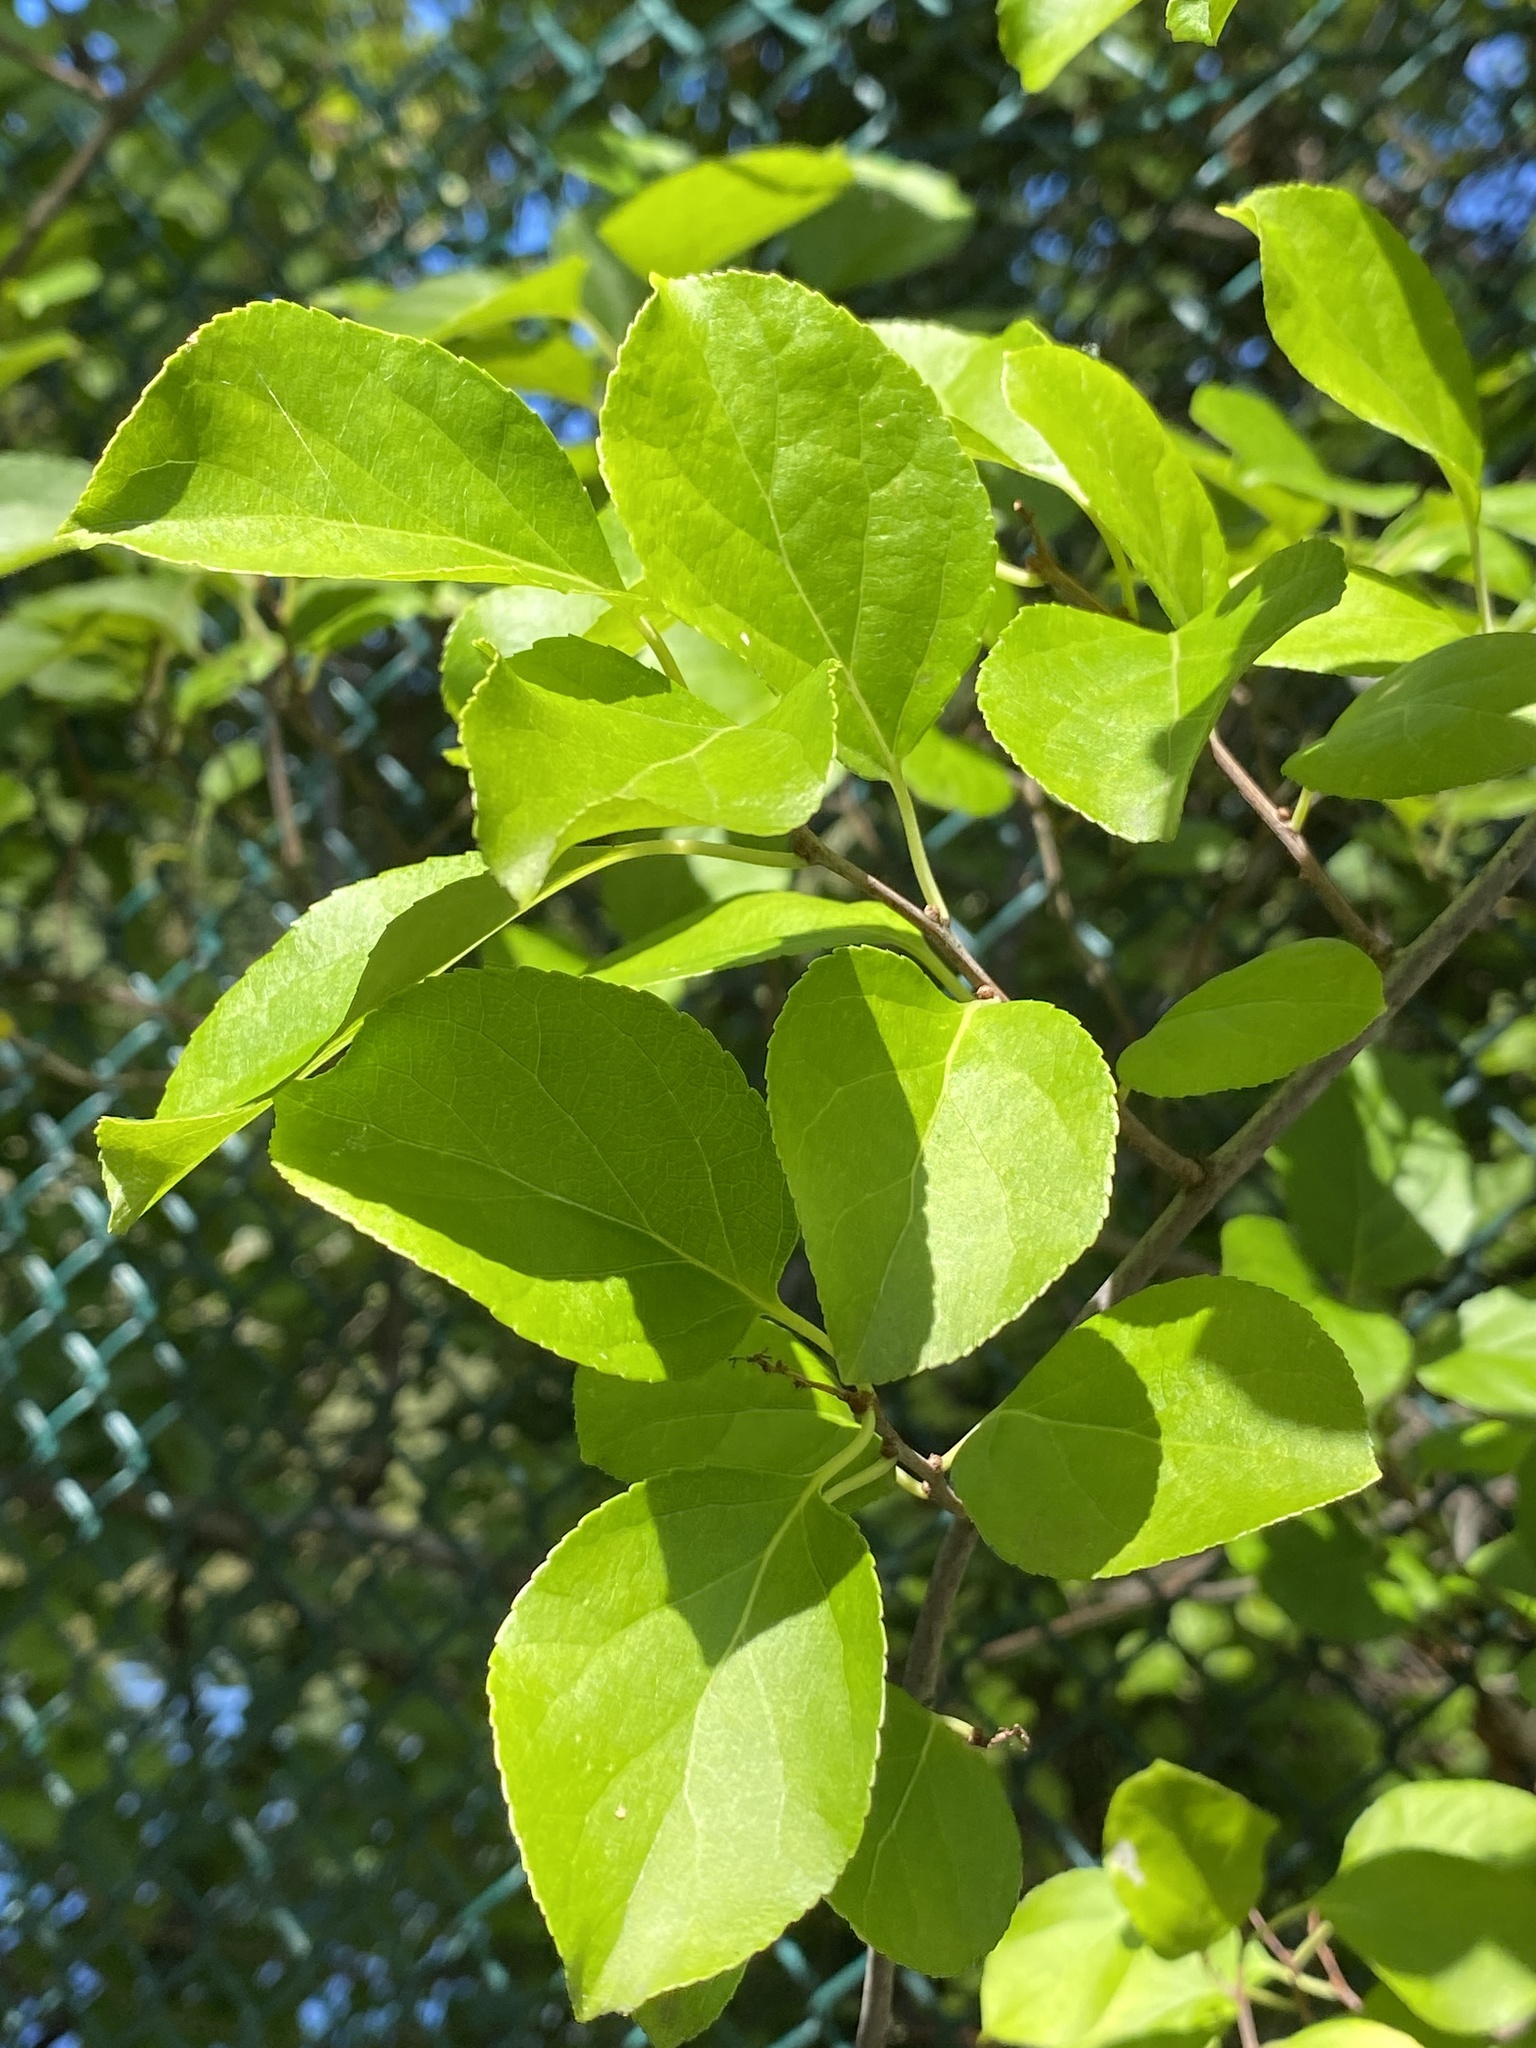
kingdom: Plantae
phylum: Tracheophyta
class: Magnoliopsida
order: Celastrales
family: Celastraceae
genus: Celastrus
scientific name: Celastrus orbiculatus
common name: Oriental bittersweet
